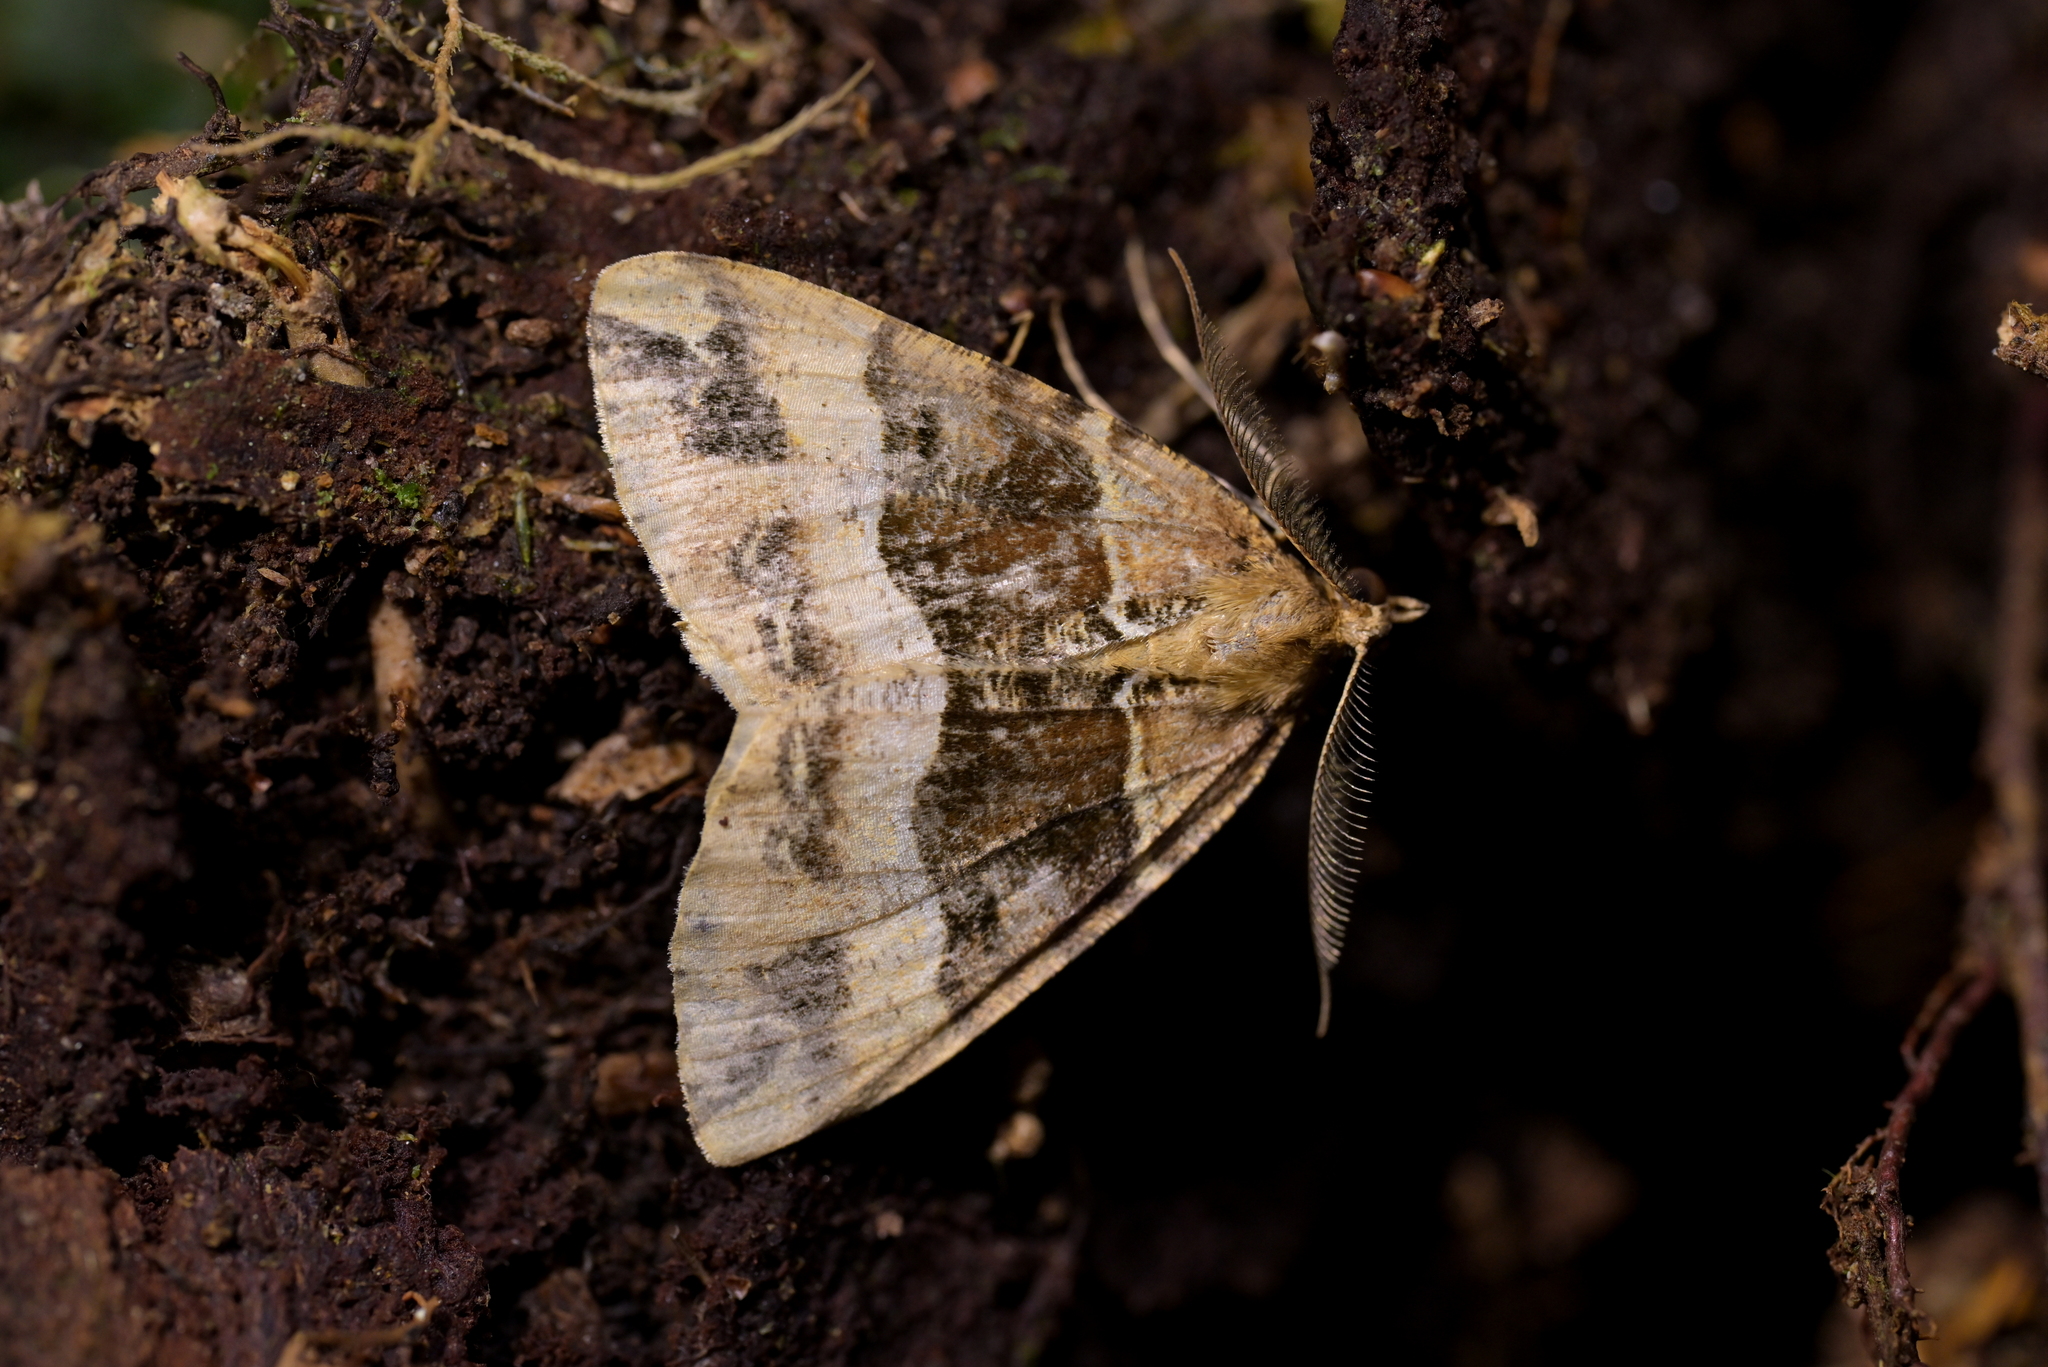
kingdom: Animalia
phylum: Arthropoda
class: Insecta
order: Lepidoptera
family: Geometridae
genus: Pseudocoremia
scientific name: Pseudocoremia fascialata
